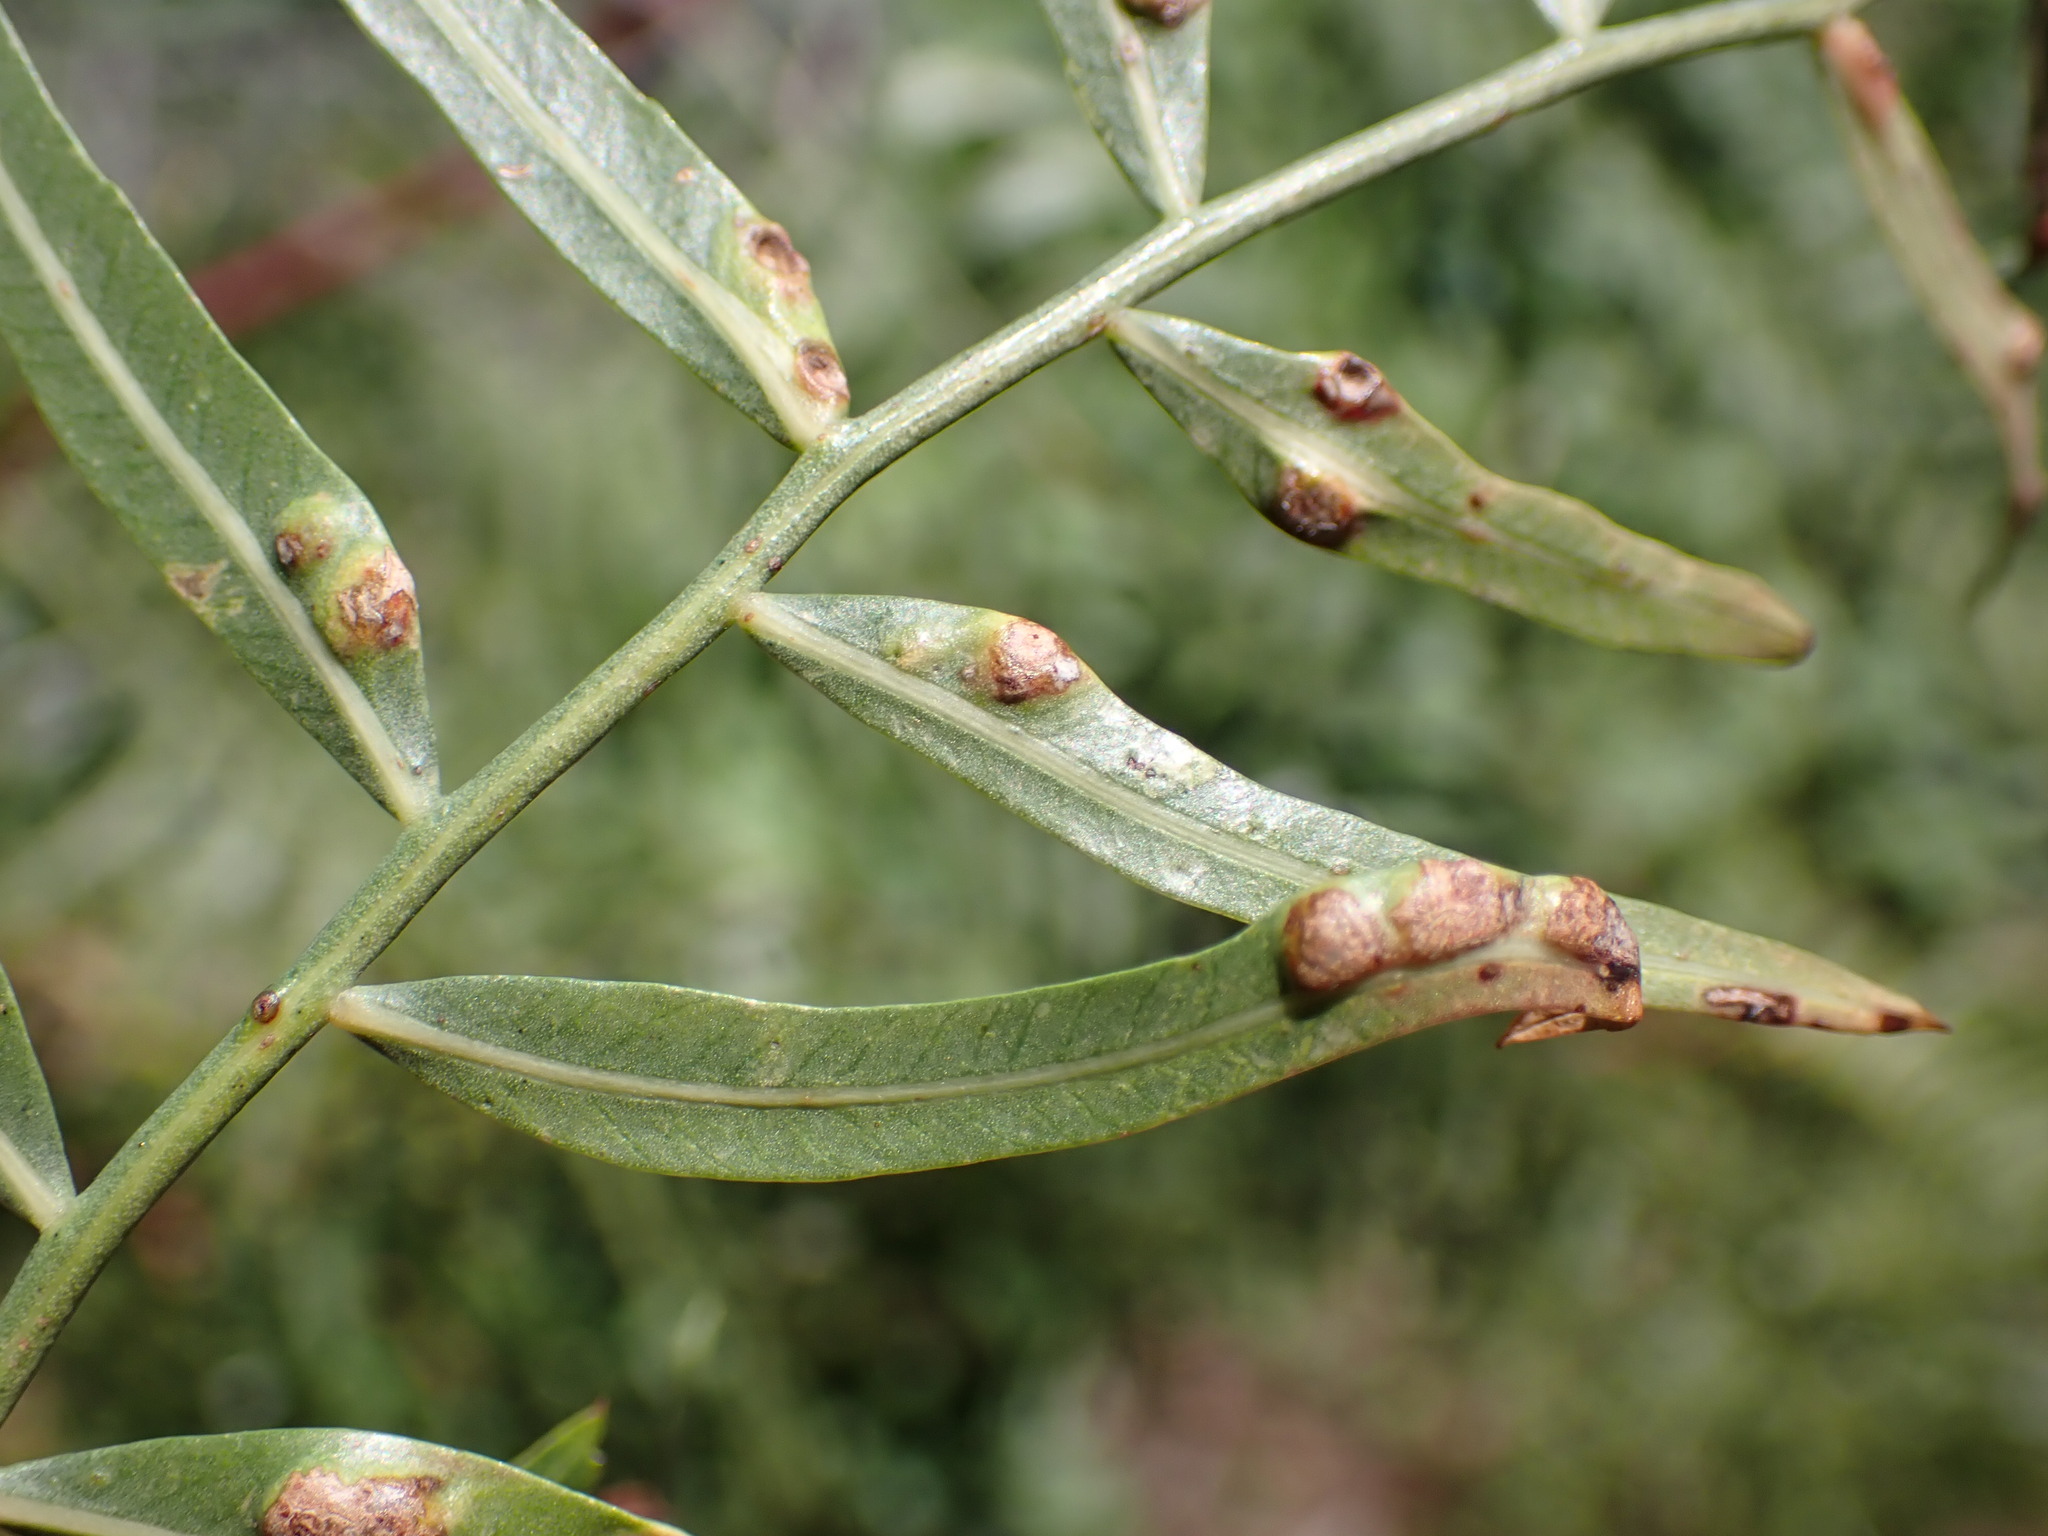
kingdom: Animalia
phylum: Arthropoda
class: Insecta
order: Hemiptera
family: Calophyidae
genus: Calophya
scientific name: Calophya schini
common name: Pepper tree psyllid
